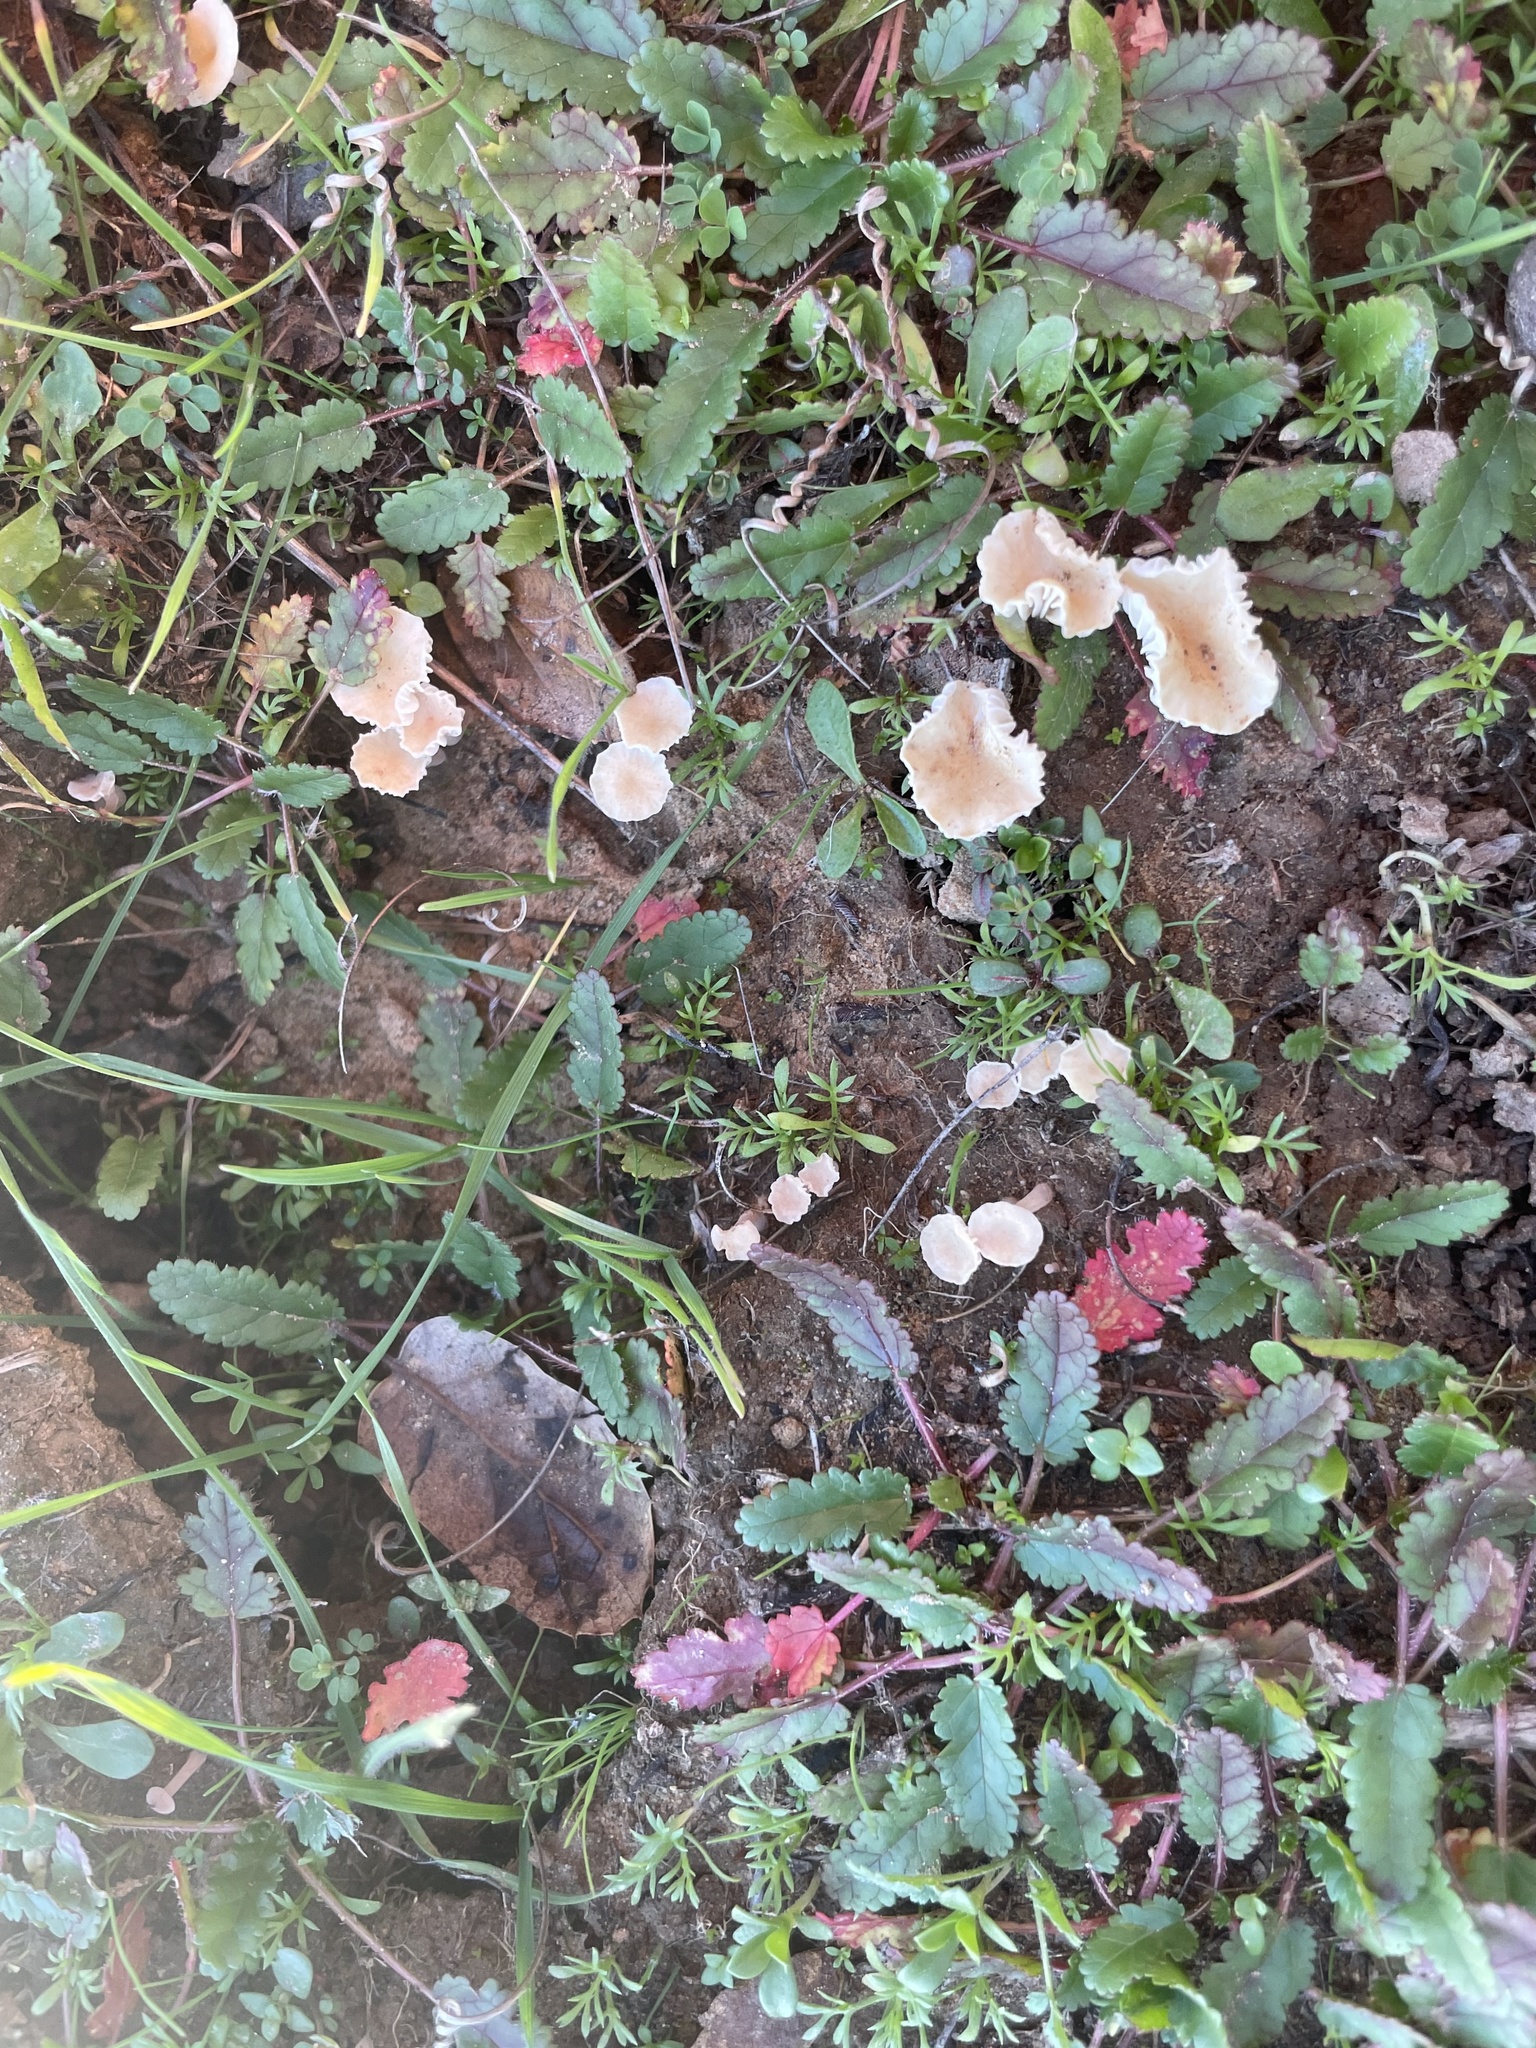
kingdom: Fungi
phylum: Basidiomycota
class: Agaricomycetes
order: Hymenochaetales
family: Rickenellaceae
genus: Contumyces
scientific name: Contumyces rosellus
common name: Rosy navel
